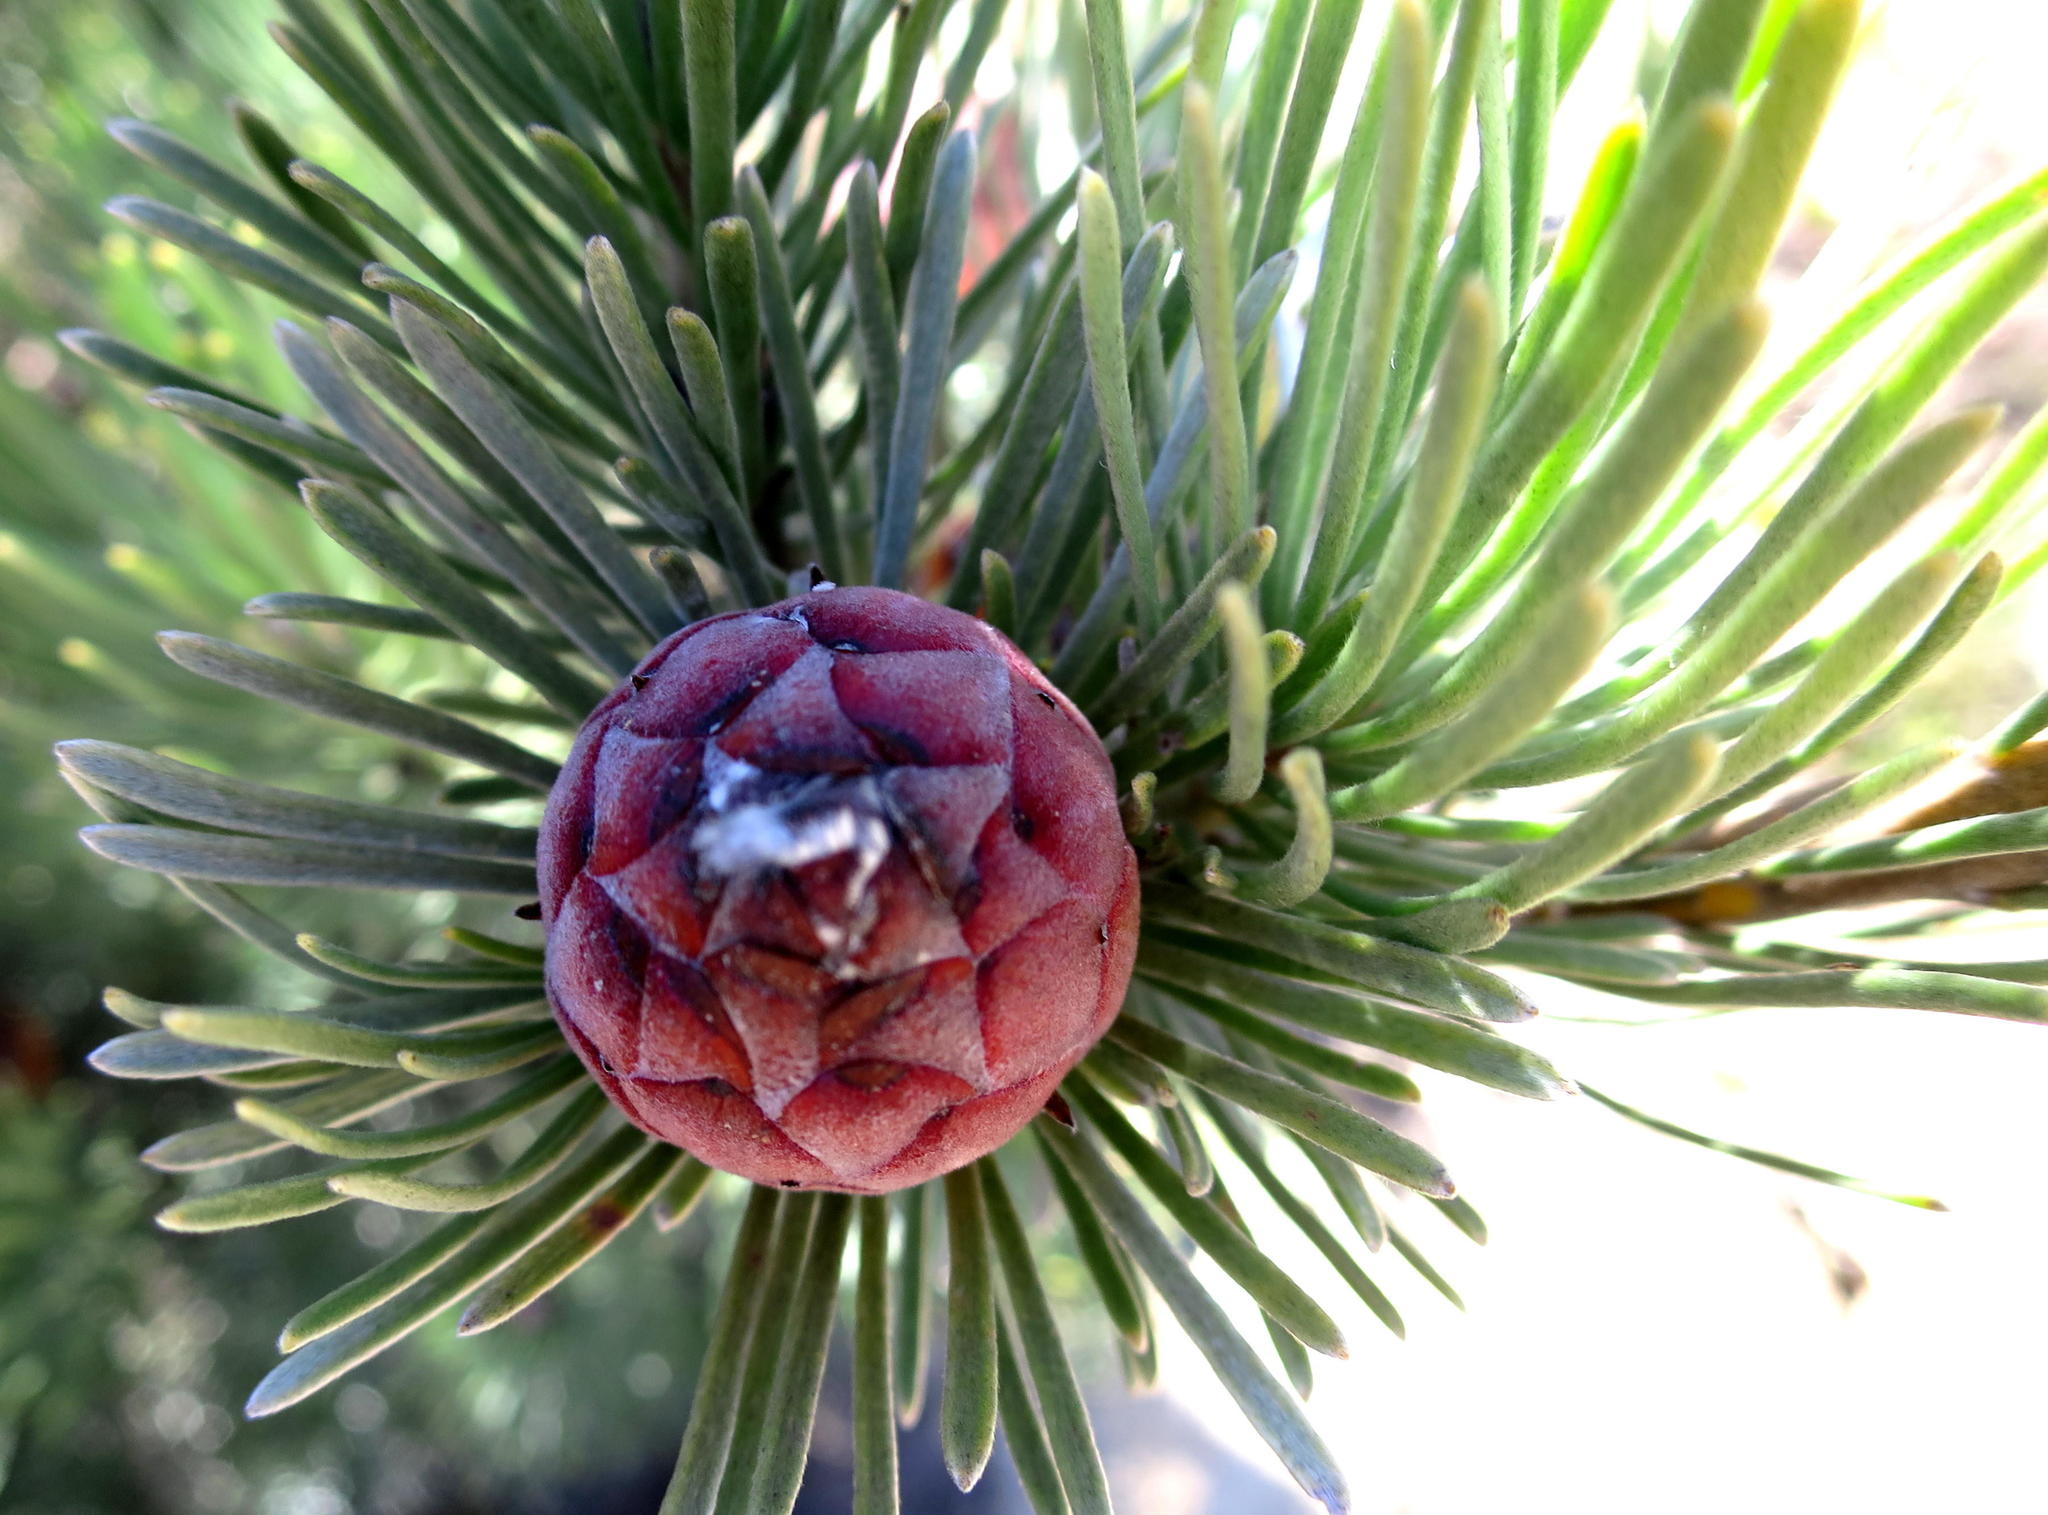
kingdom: Plantae
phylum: Tracheophyta
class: Magnoliopsida
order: Proteales
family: Proteaceae
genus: Leucadendron
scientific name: Leucadendron album
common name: Linear-leaf conebush
